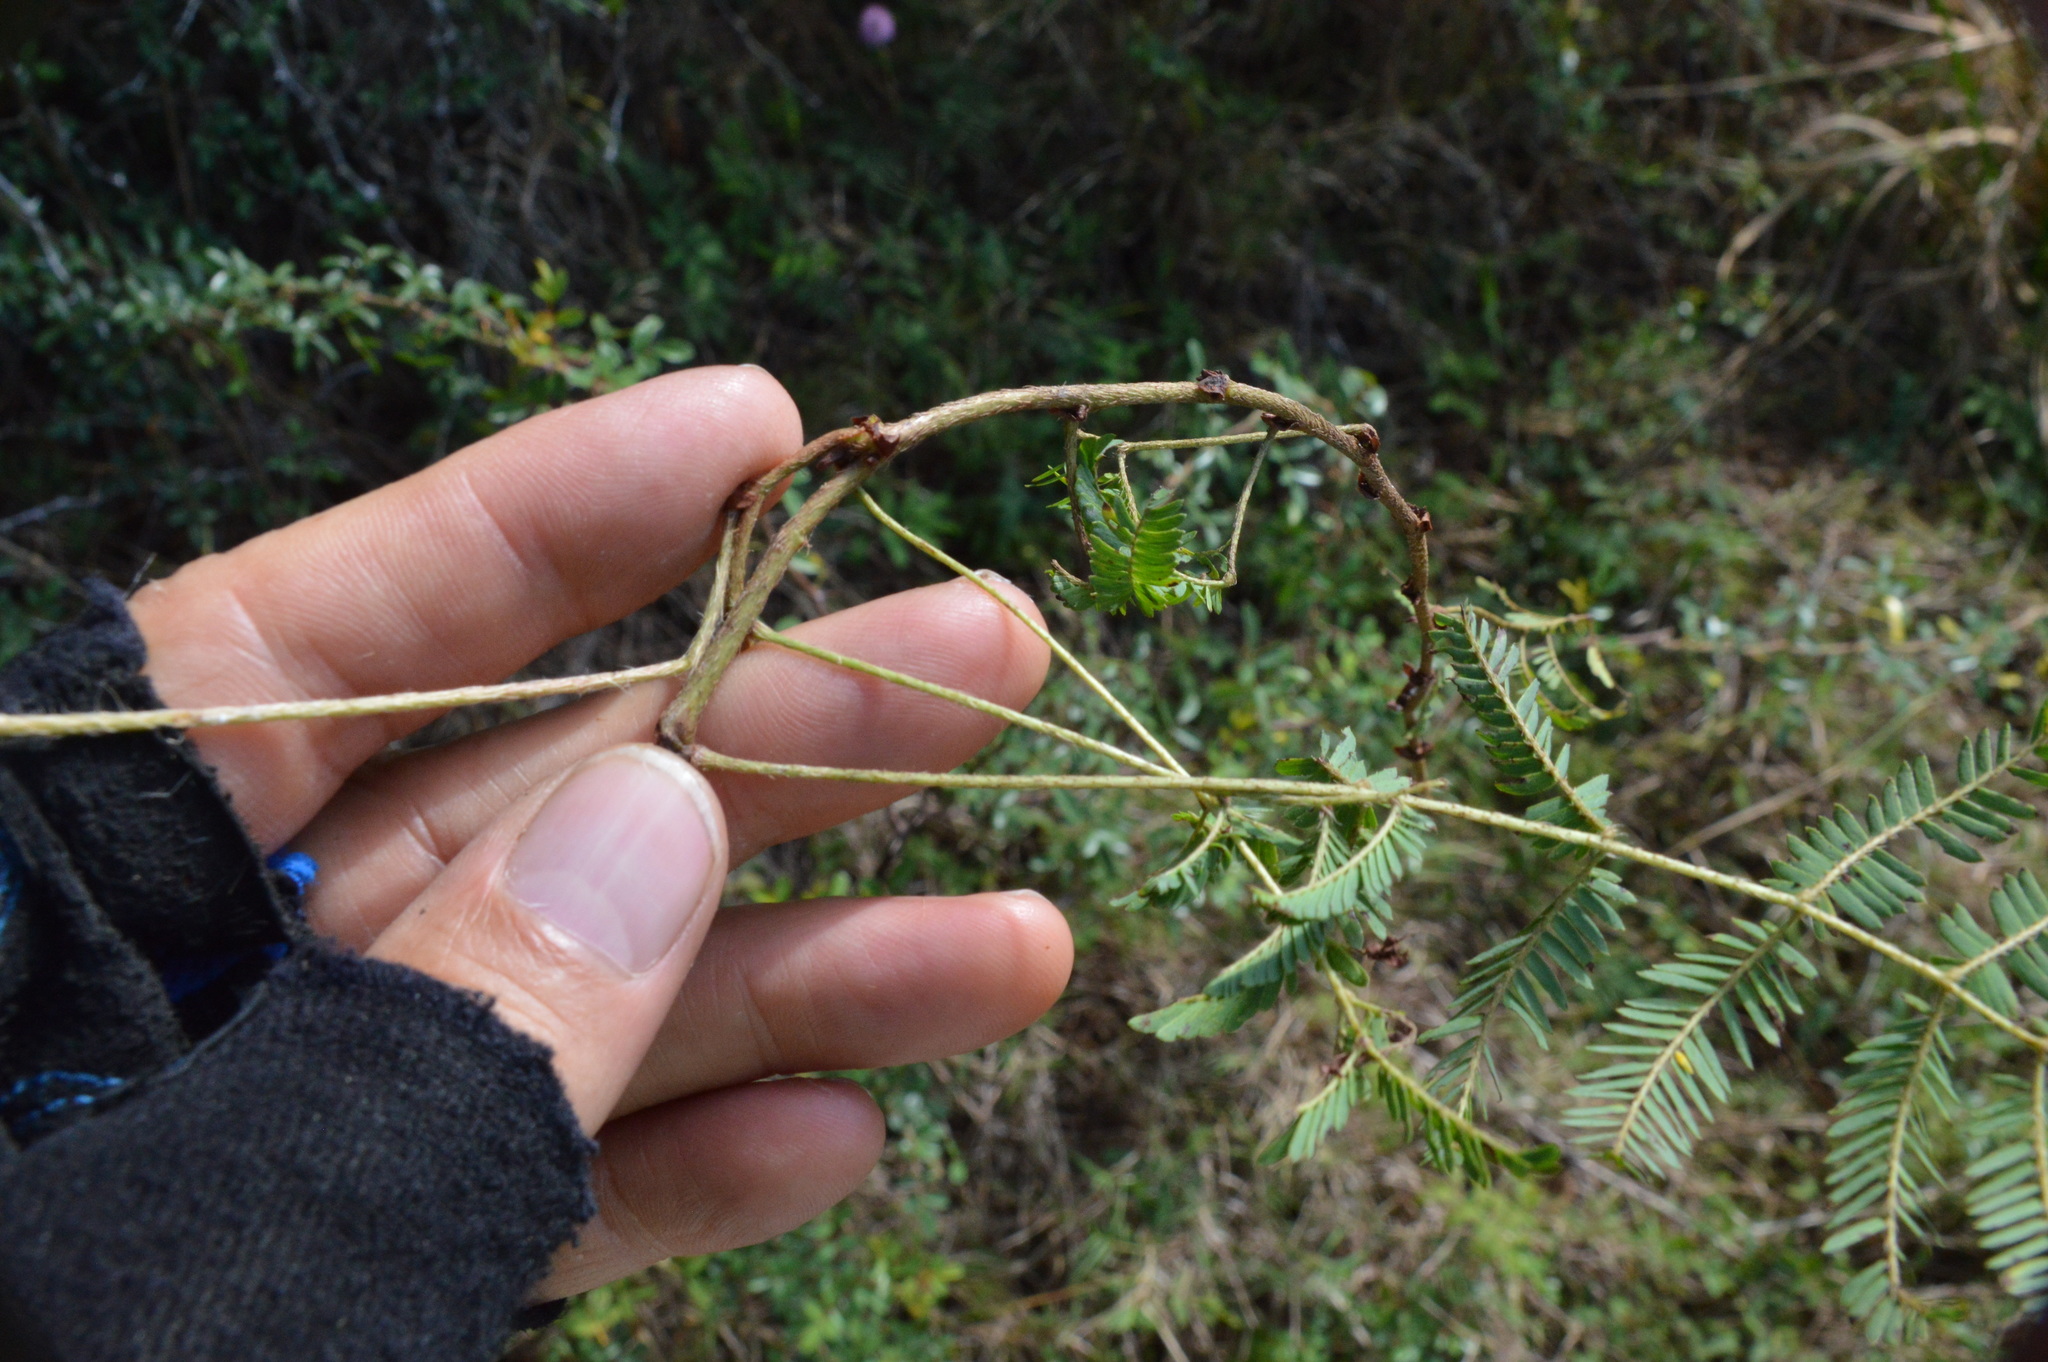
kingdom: Plantae
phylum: Tracheophyta
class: Magnoliopsida
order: Fabales
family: Fabaceae
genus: Mimosa
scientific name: Mimosa strigillosa
